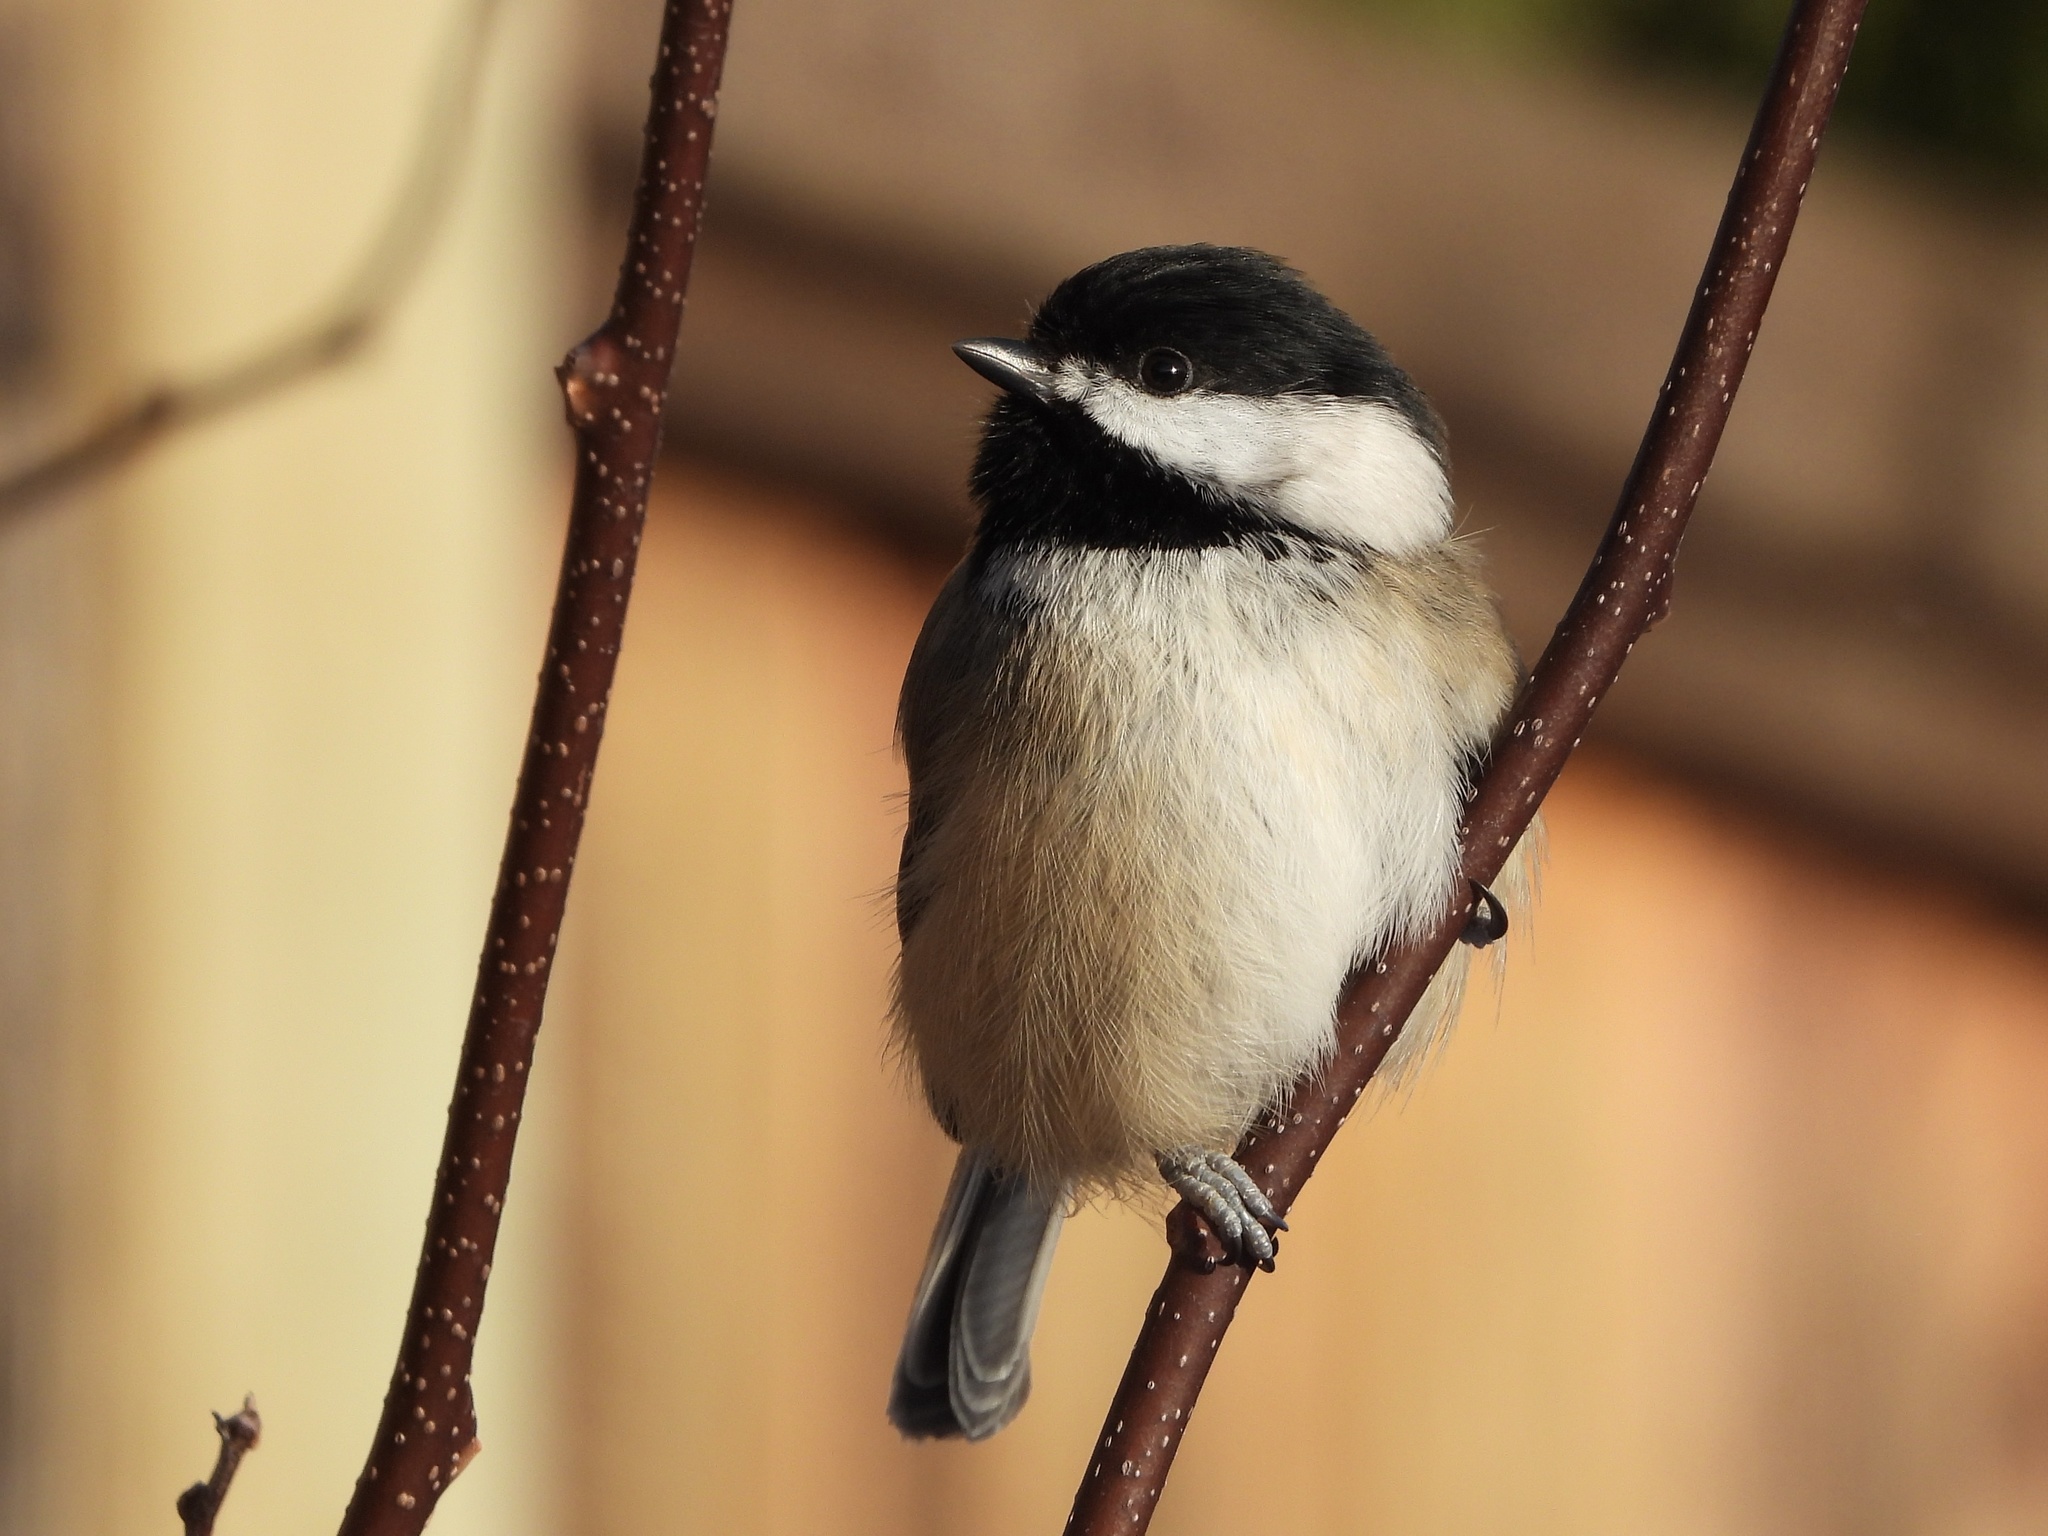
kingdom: Animalia
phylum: Chordata
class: Aves
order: Passeriformes
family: Paridae
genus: Poecile
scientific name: Poecile atricapillus
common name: Black-capped chickadee
